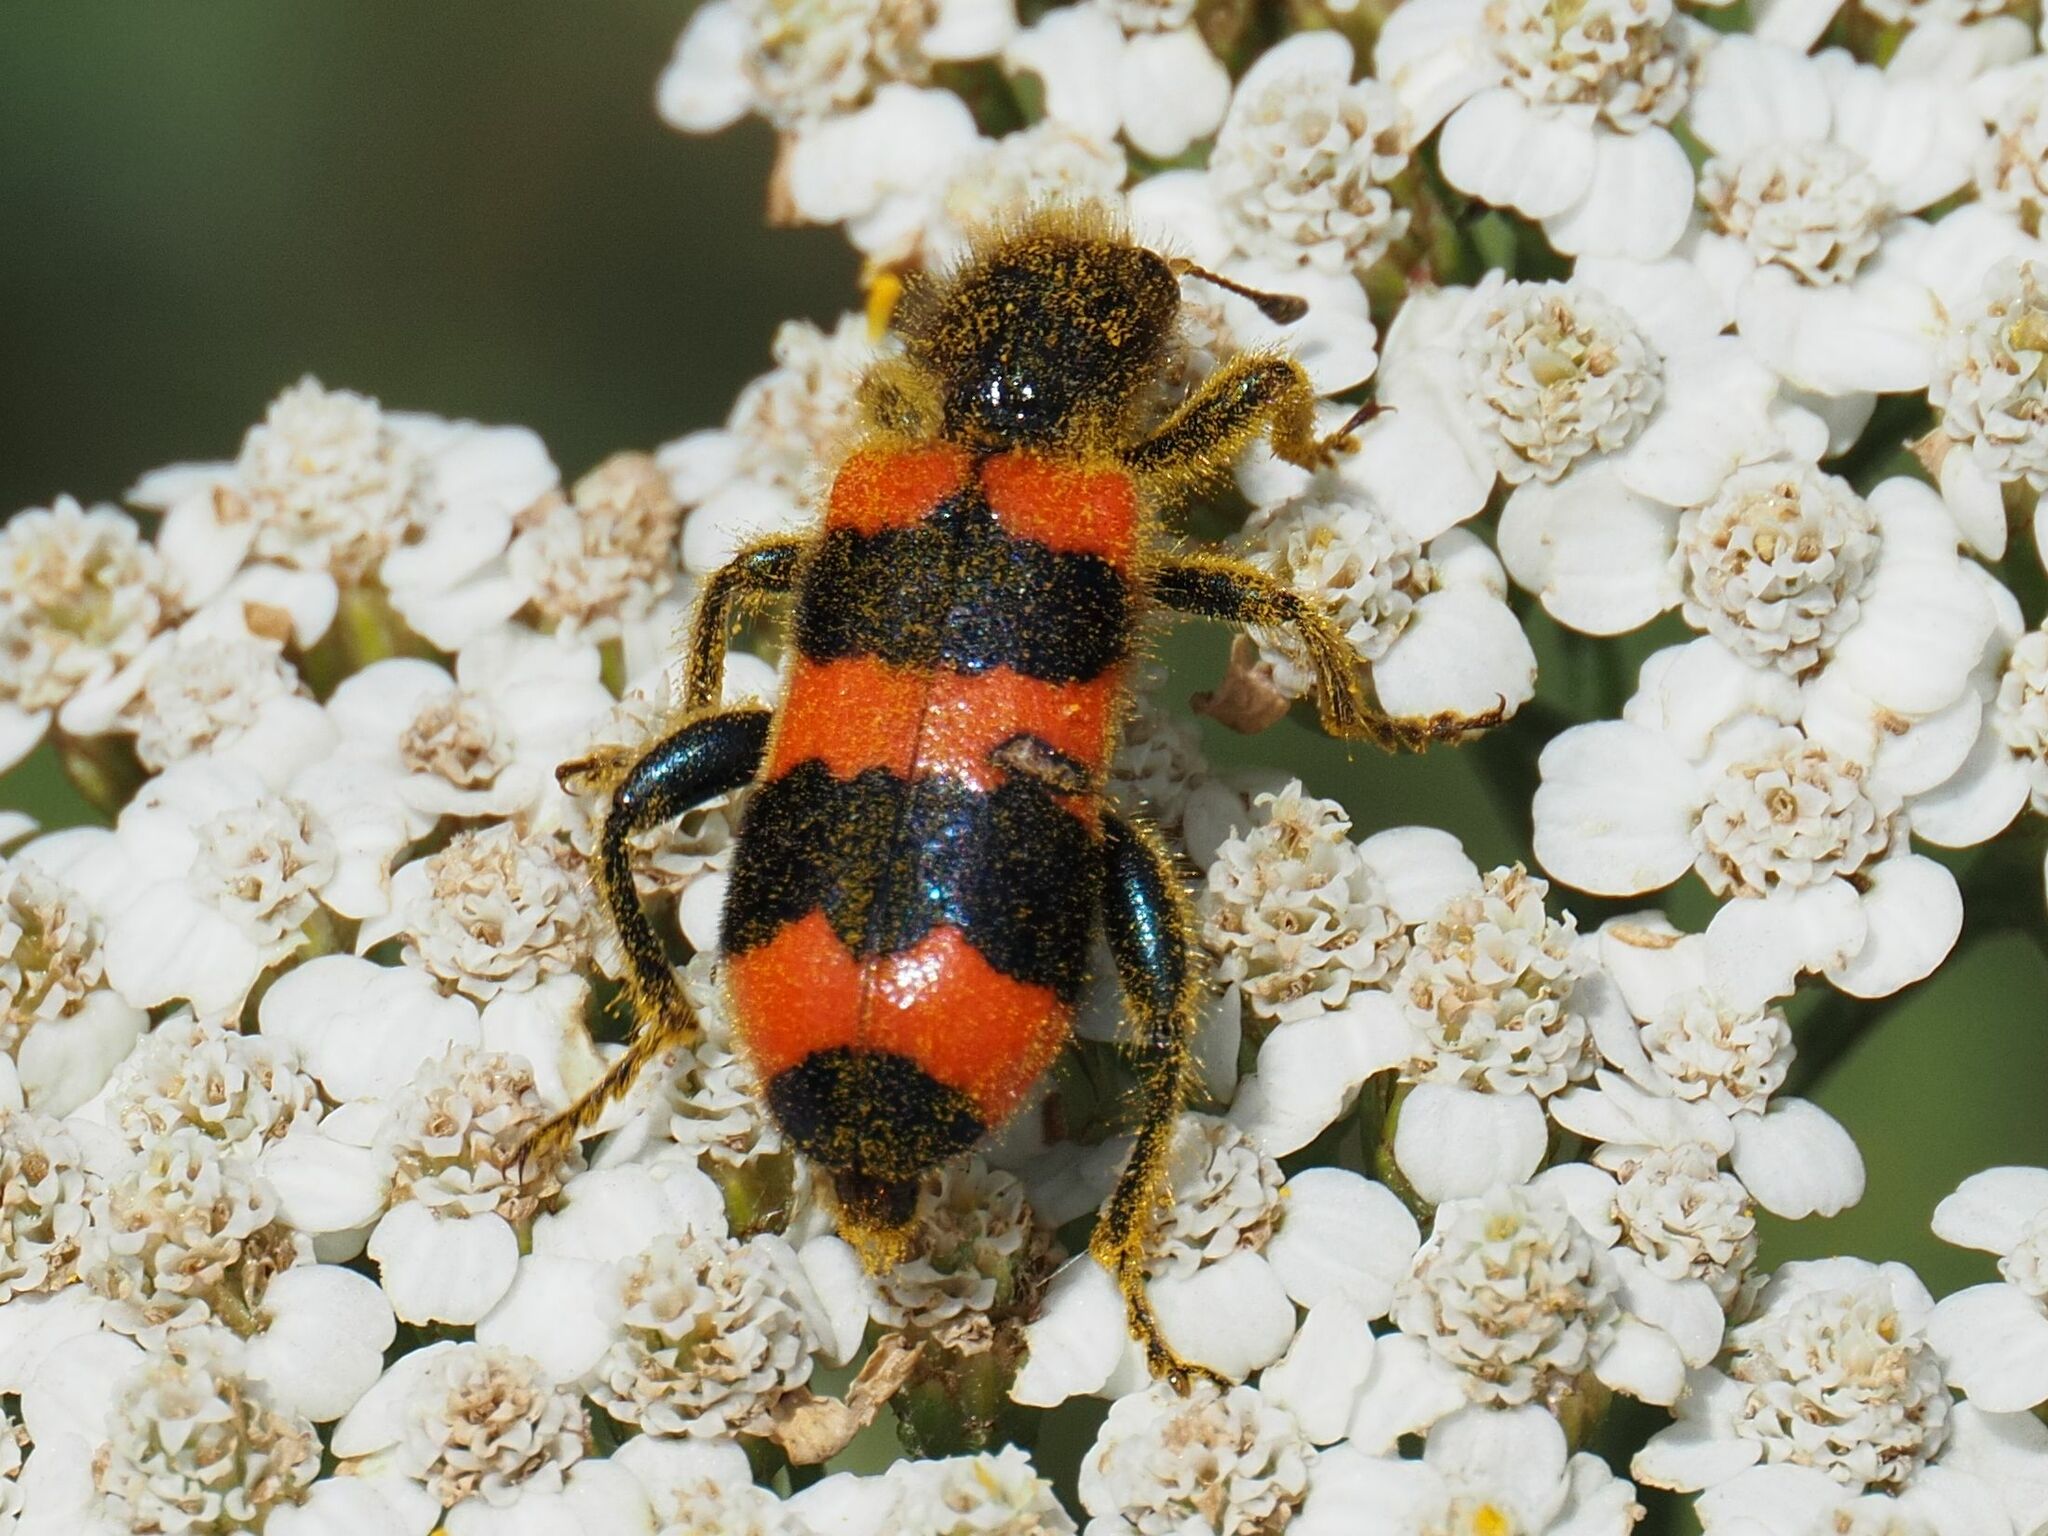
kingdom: Animalia
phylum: Arthropoda
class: Insecta
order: Coleoptera
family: Cleridae
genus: Trichodes
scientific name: Trichodes apiarius
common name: Bee-eating beetle
